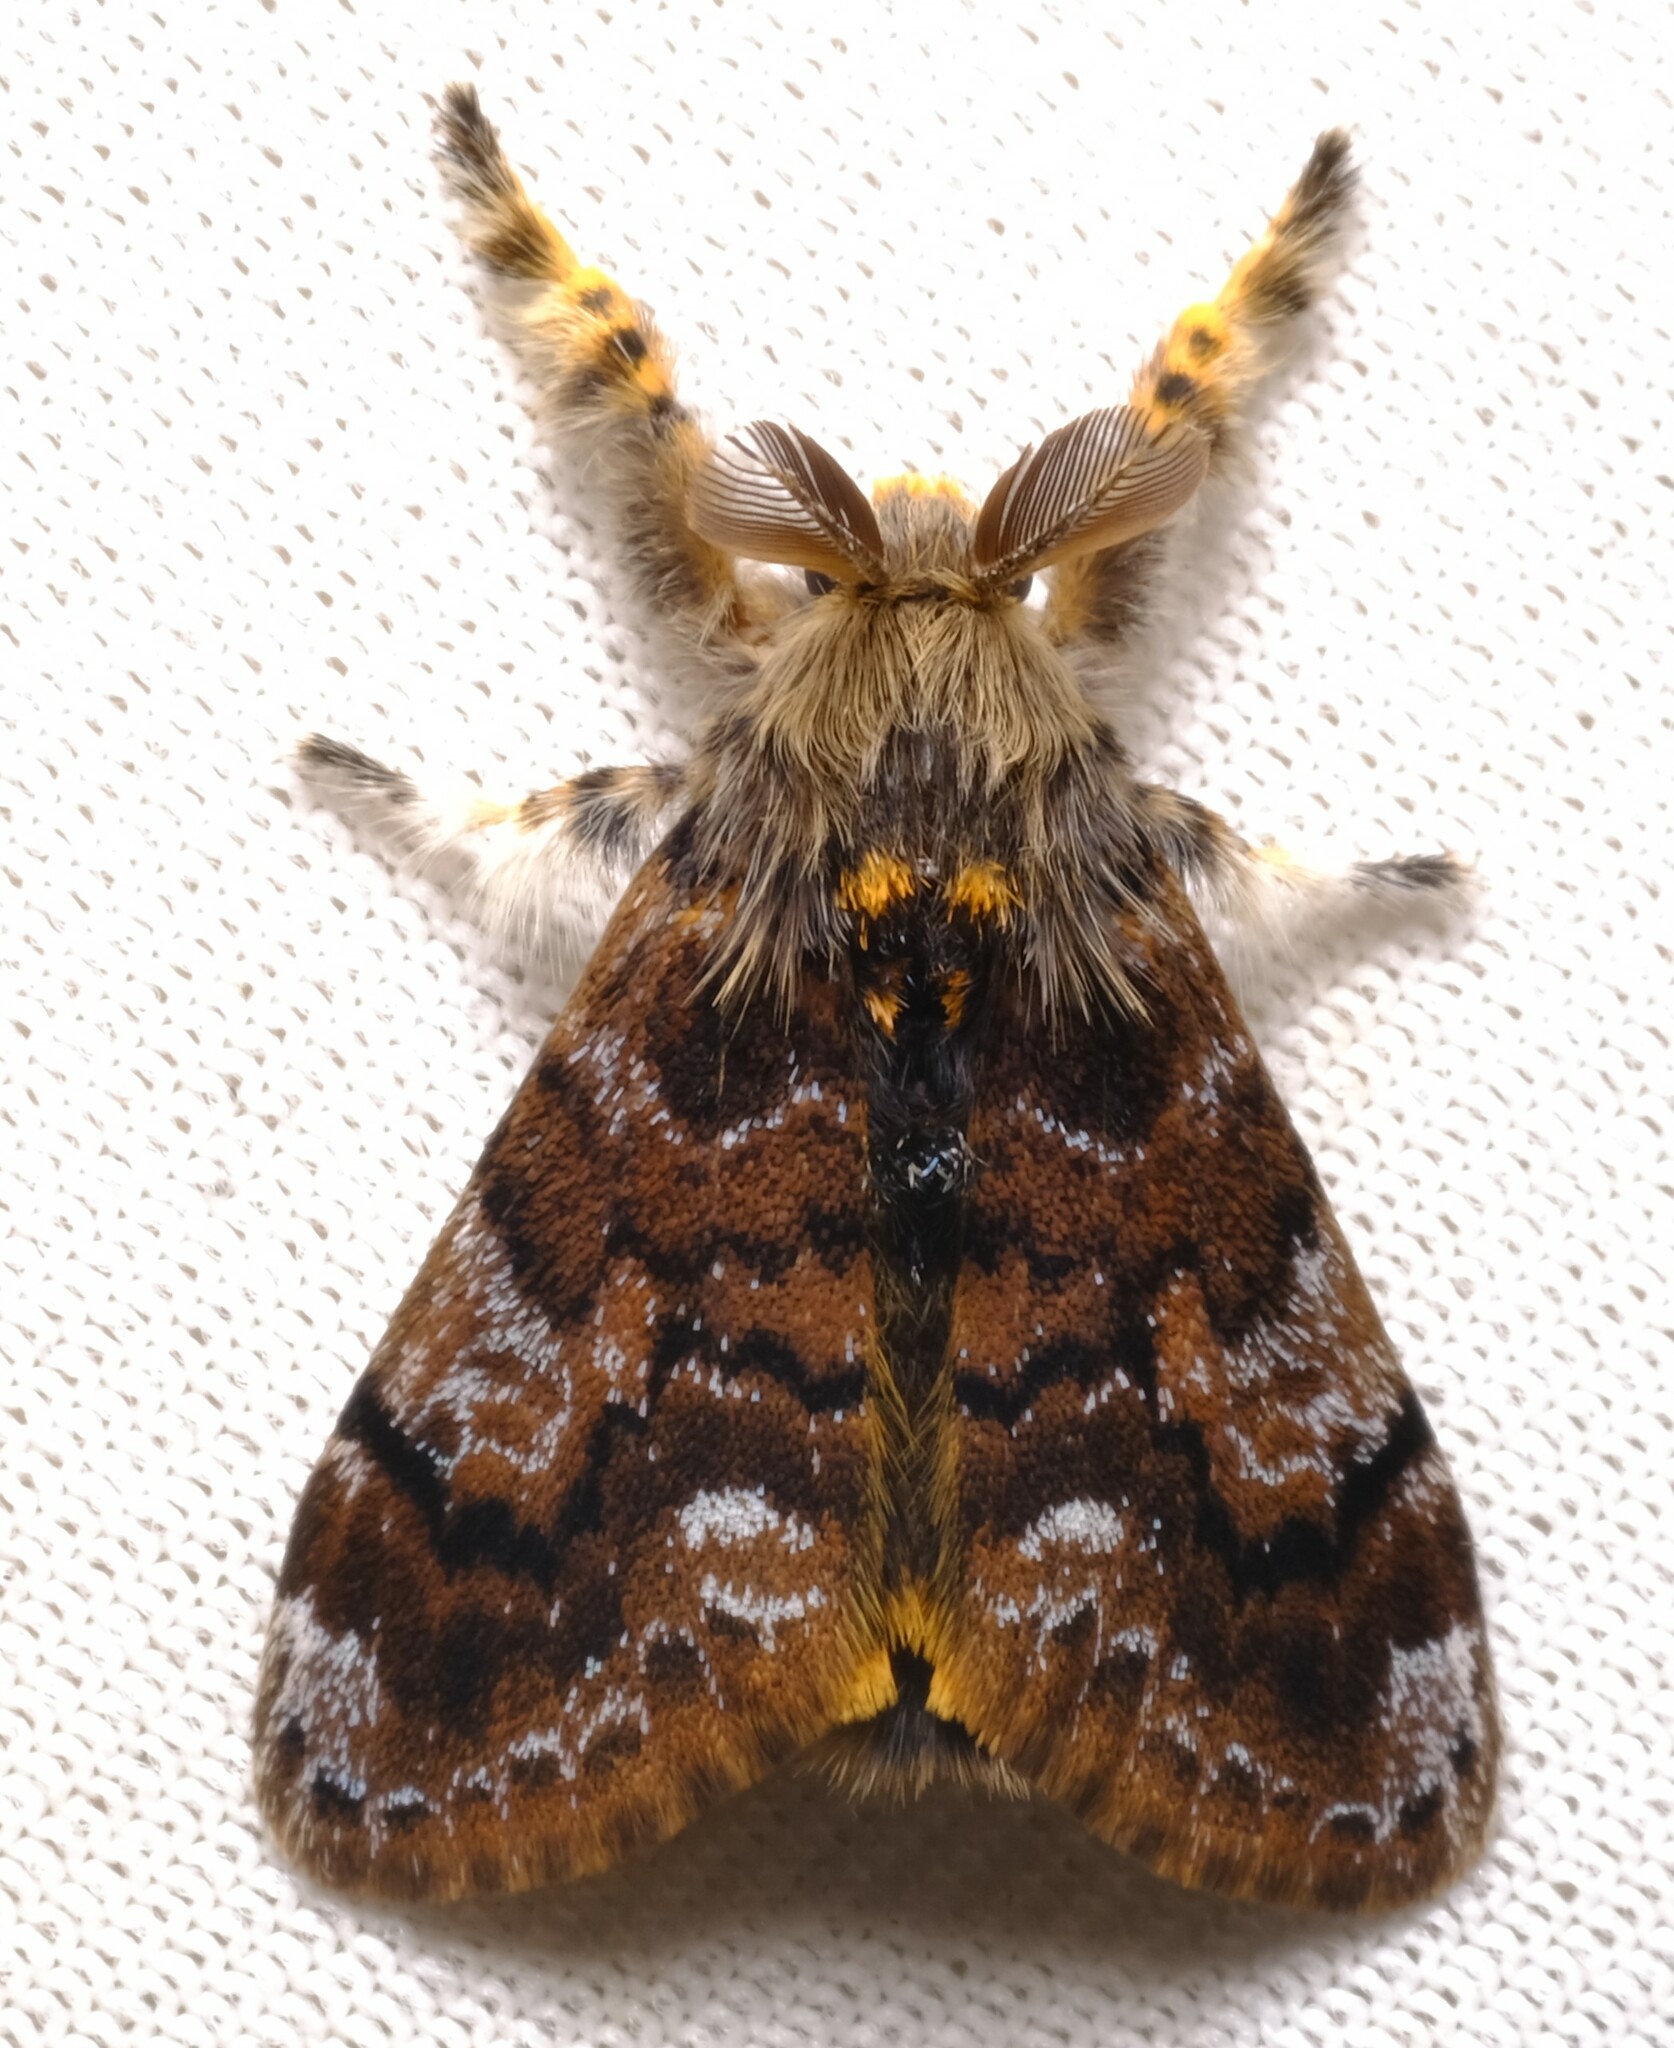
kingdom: Animalia
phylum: Arthropoda
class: Insecta
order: Lepidoptera
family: Erebidae
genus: Orgyia
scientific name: Orgyia
